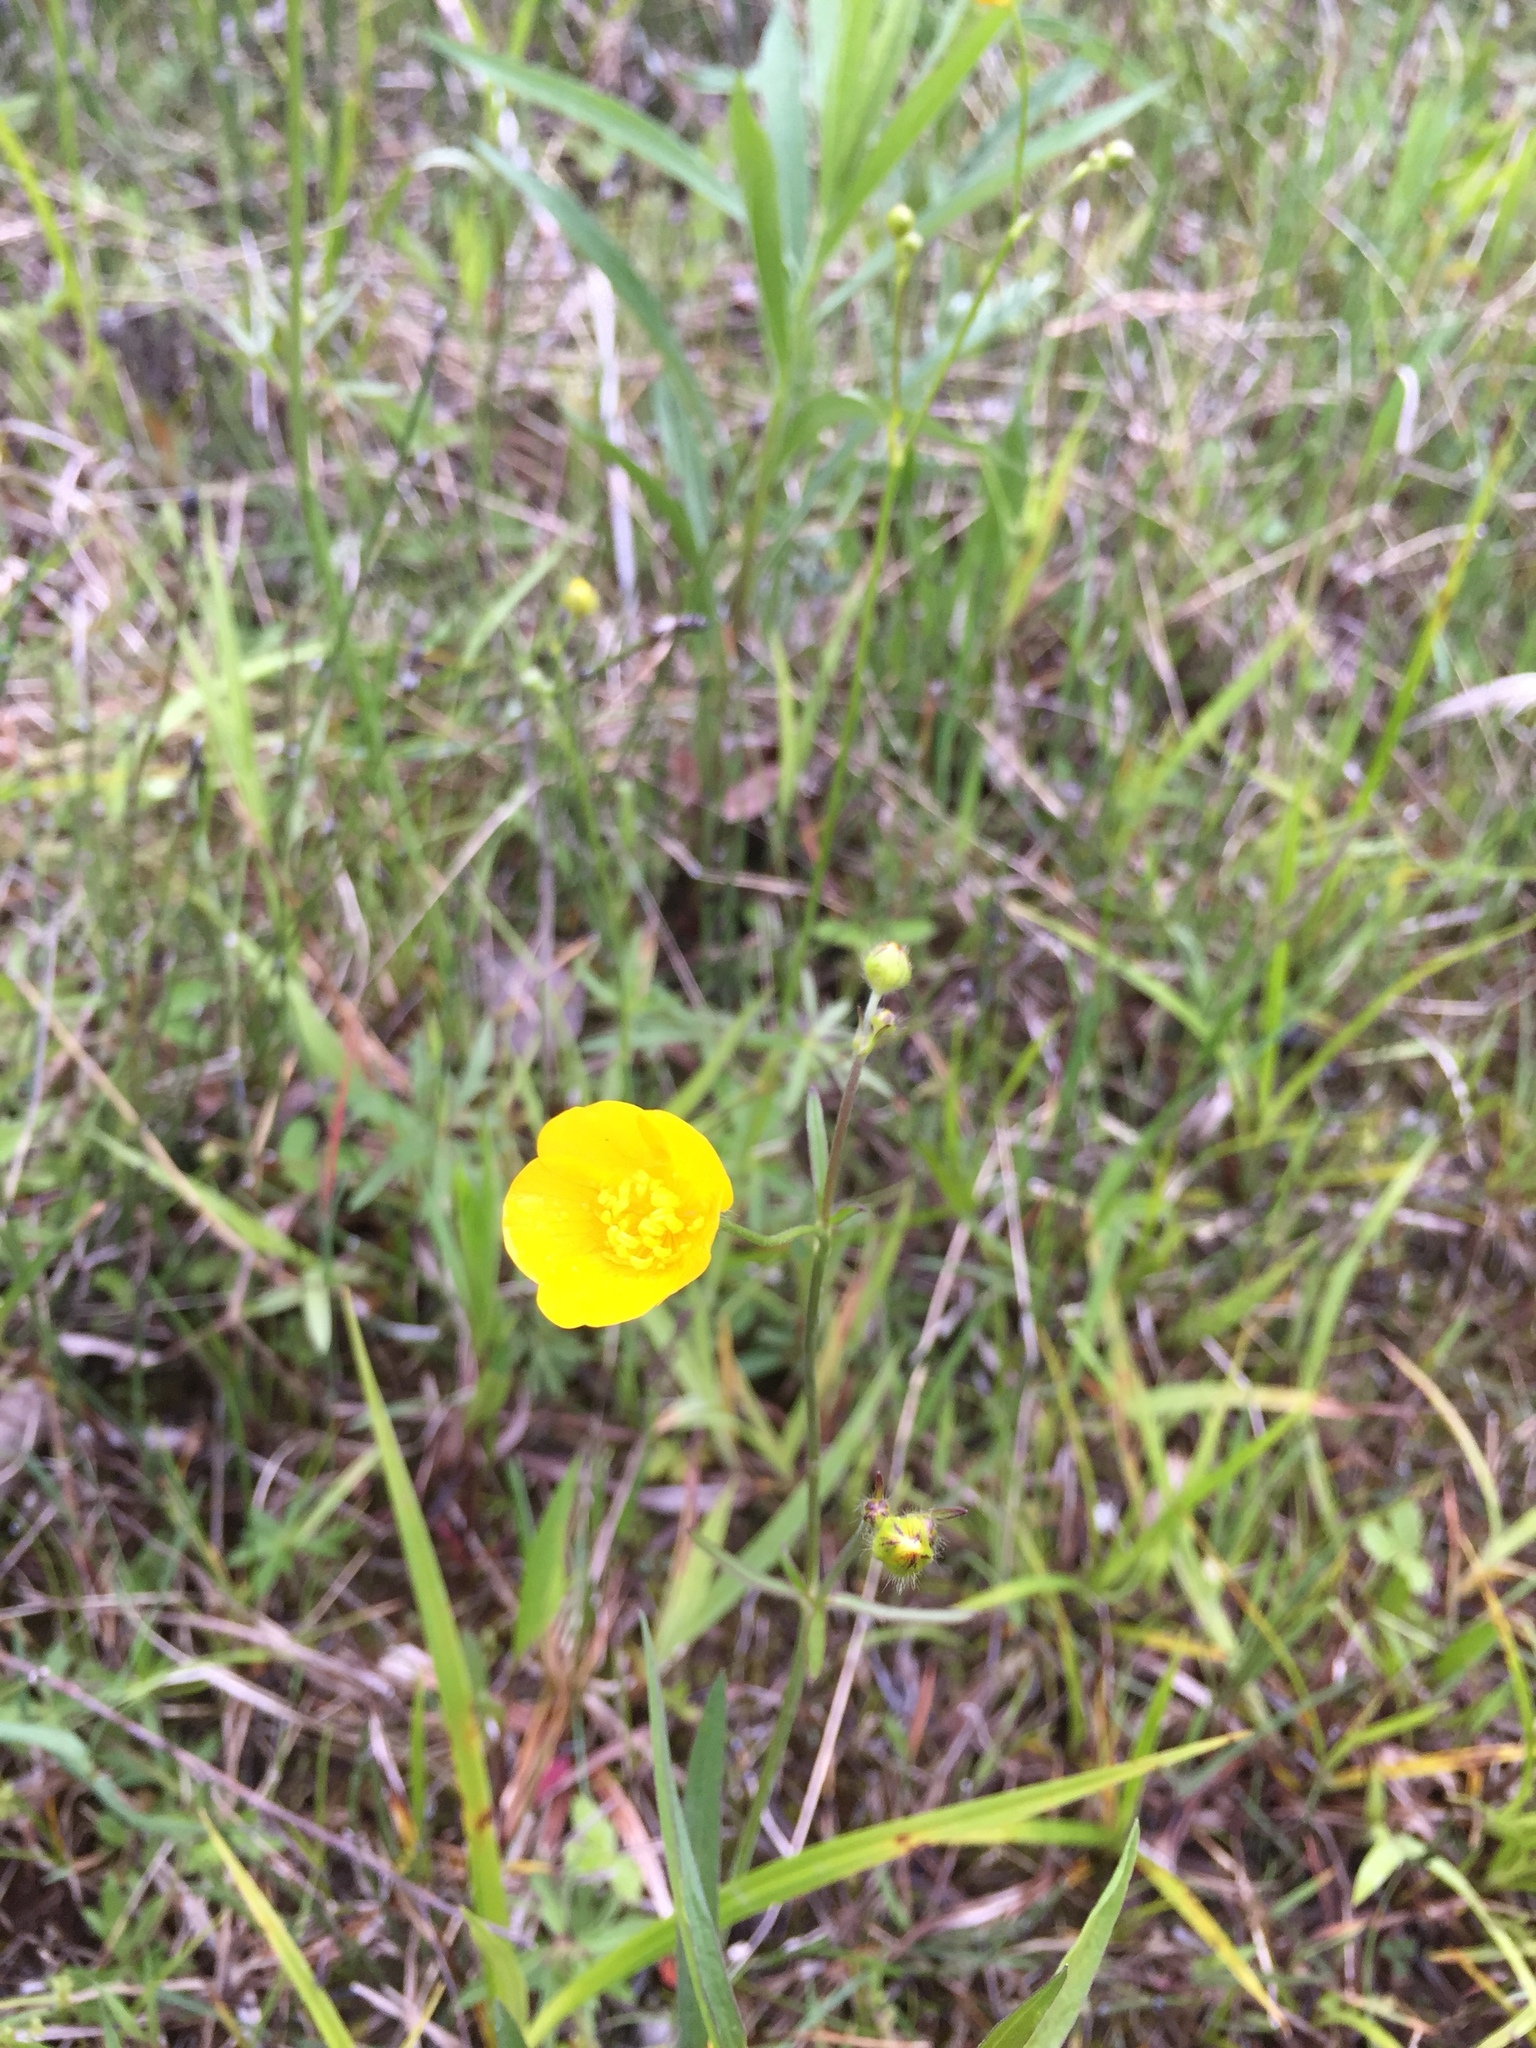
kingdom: Plantae
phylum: Tracheophyta
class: Magnoliopsida
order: Ranunculales
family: Ranunculaceae
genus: Ranunculus
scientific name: Ranunculus acris
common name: Meadow buttercup
